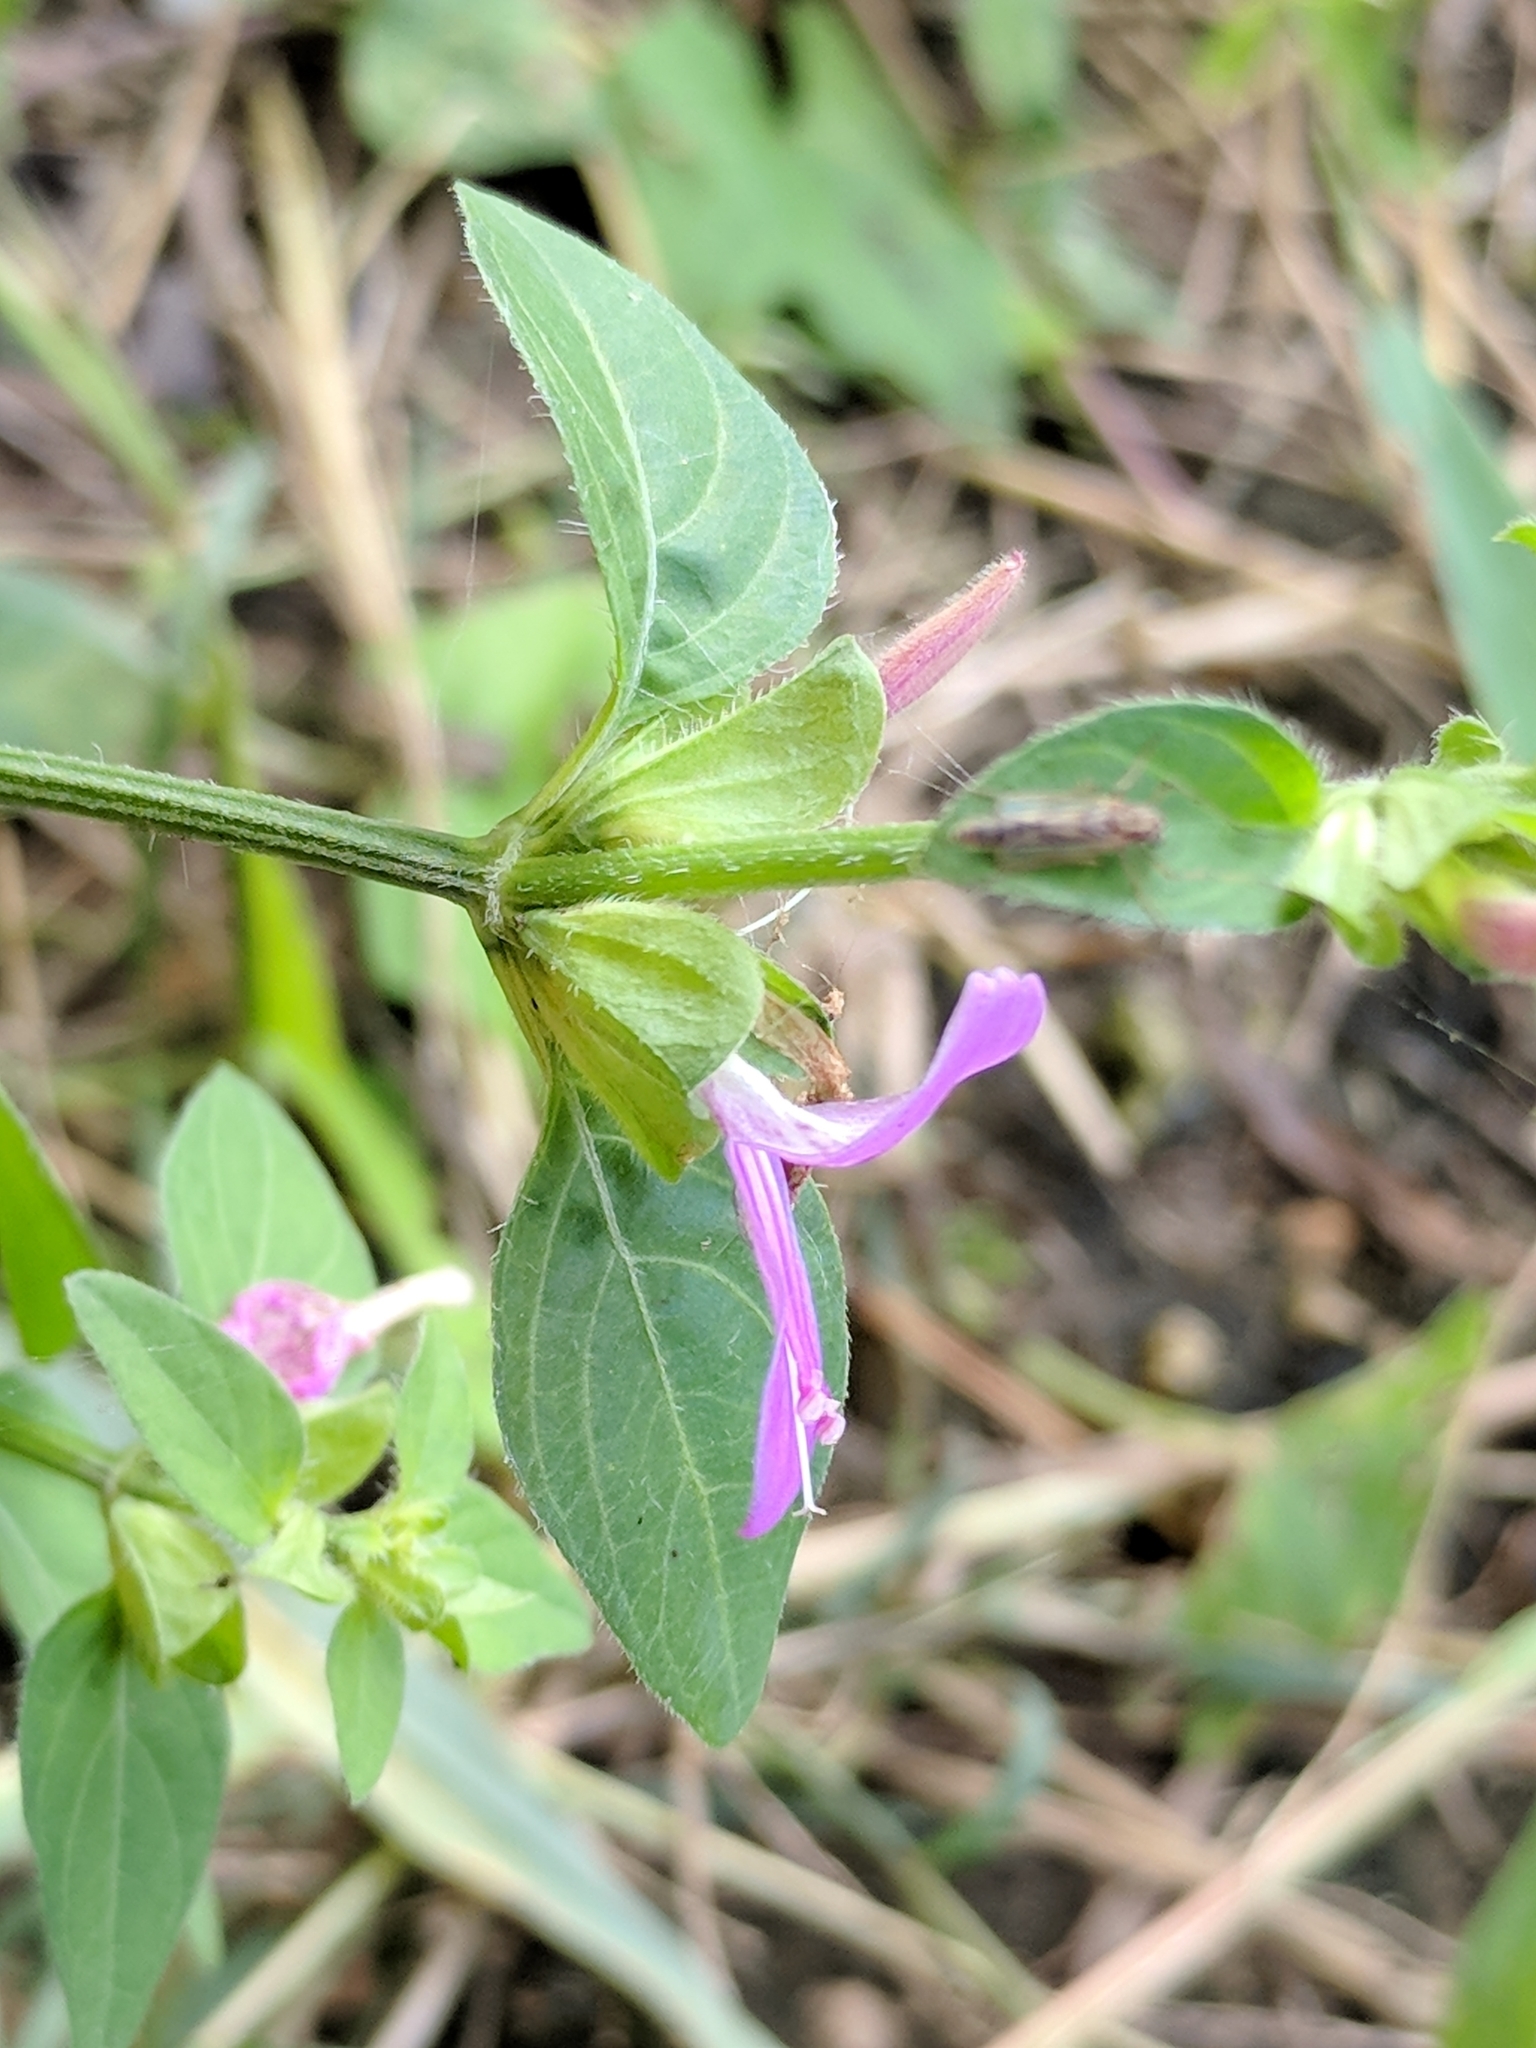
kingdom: Plantae
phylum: Tracheophyta
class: Magnoliopsida
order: Lamiales
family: Acanthaceae
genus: Dicliptera
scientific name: Dicliptera brachiata
